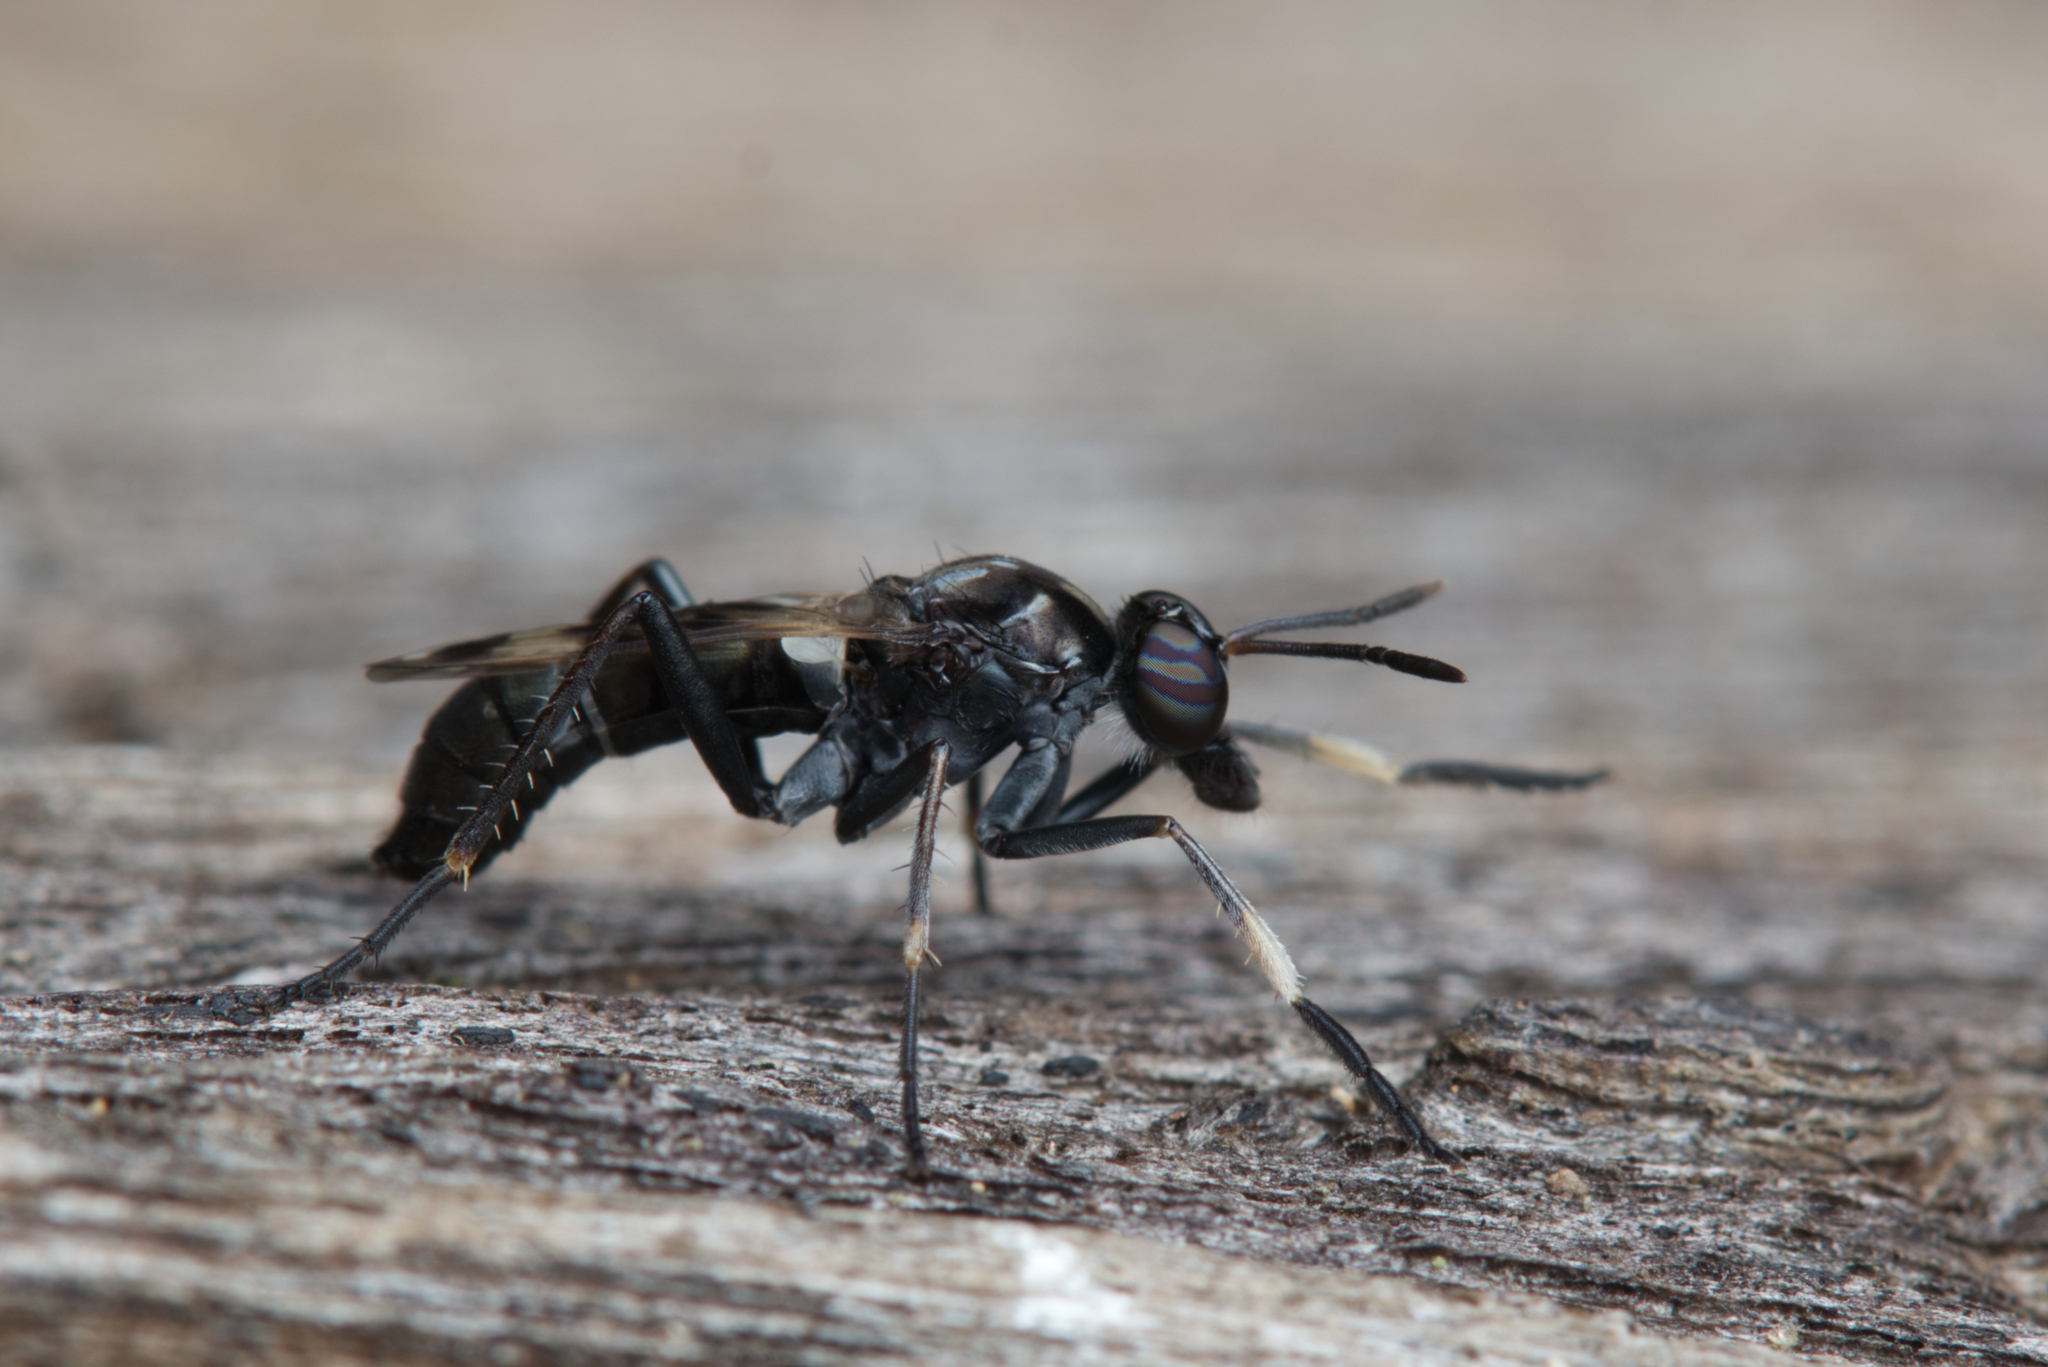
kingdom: Animalia
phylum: Arthropoda
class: Insecta
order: Diptera
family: Therevidae
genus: Agapophytus
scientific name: Agapophytus decorus
